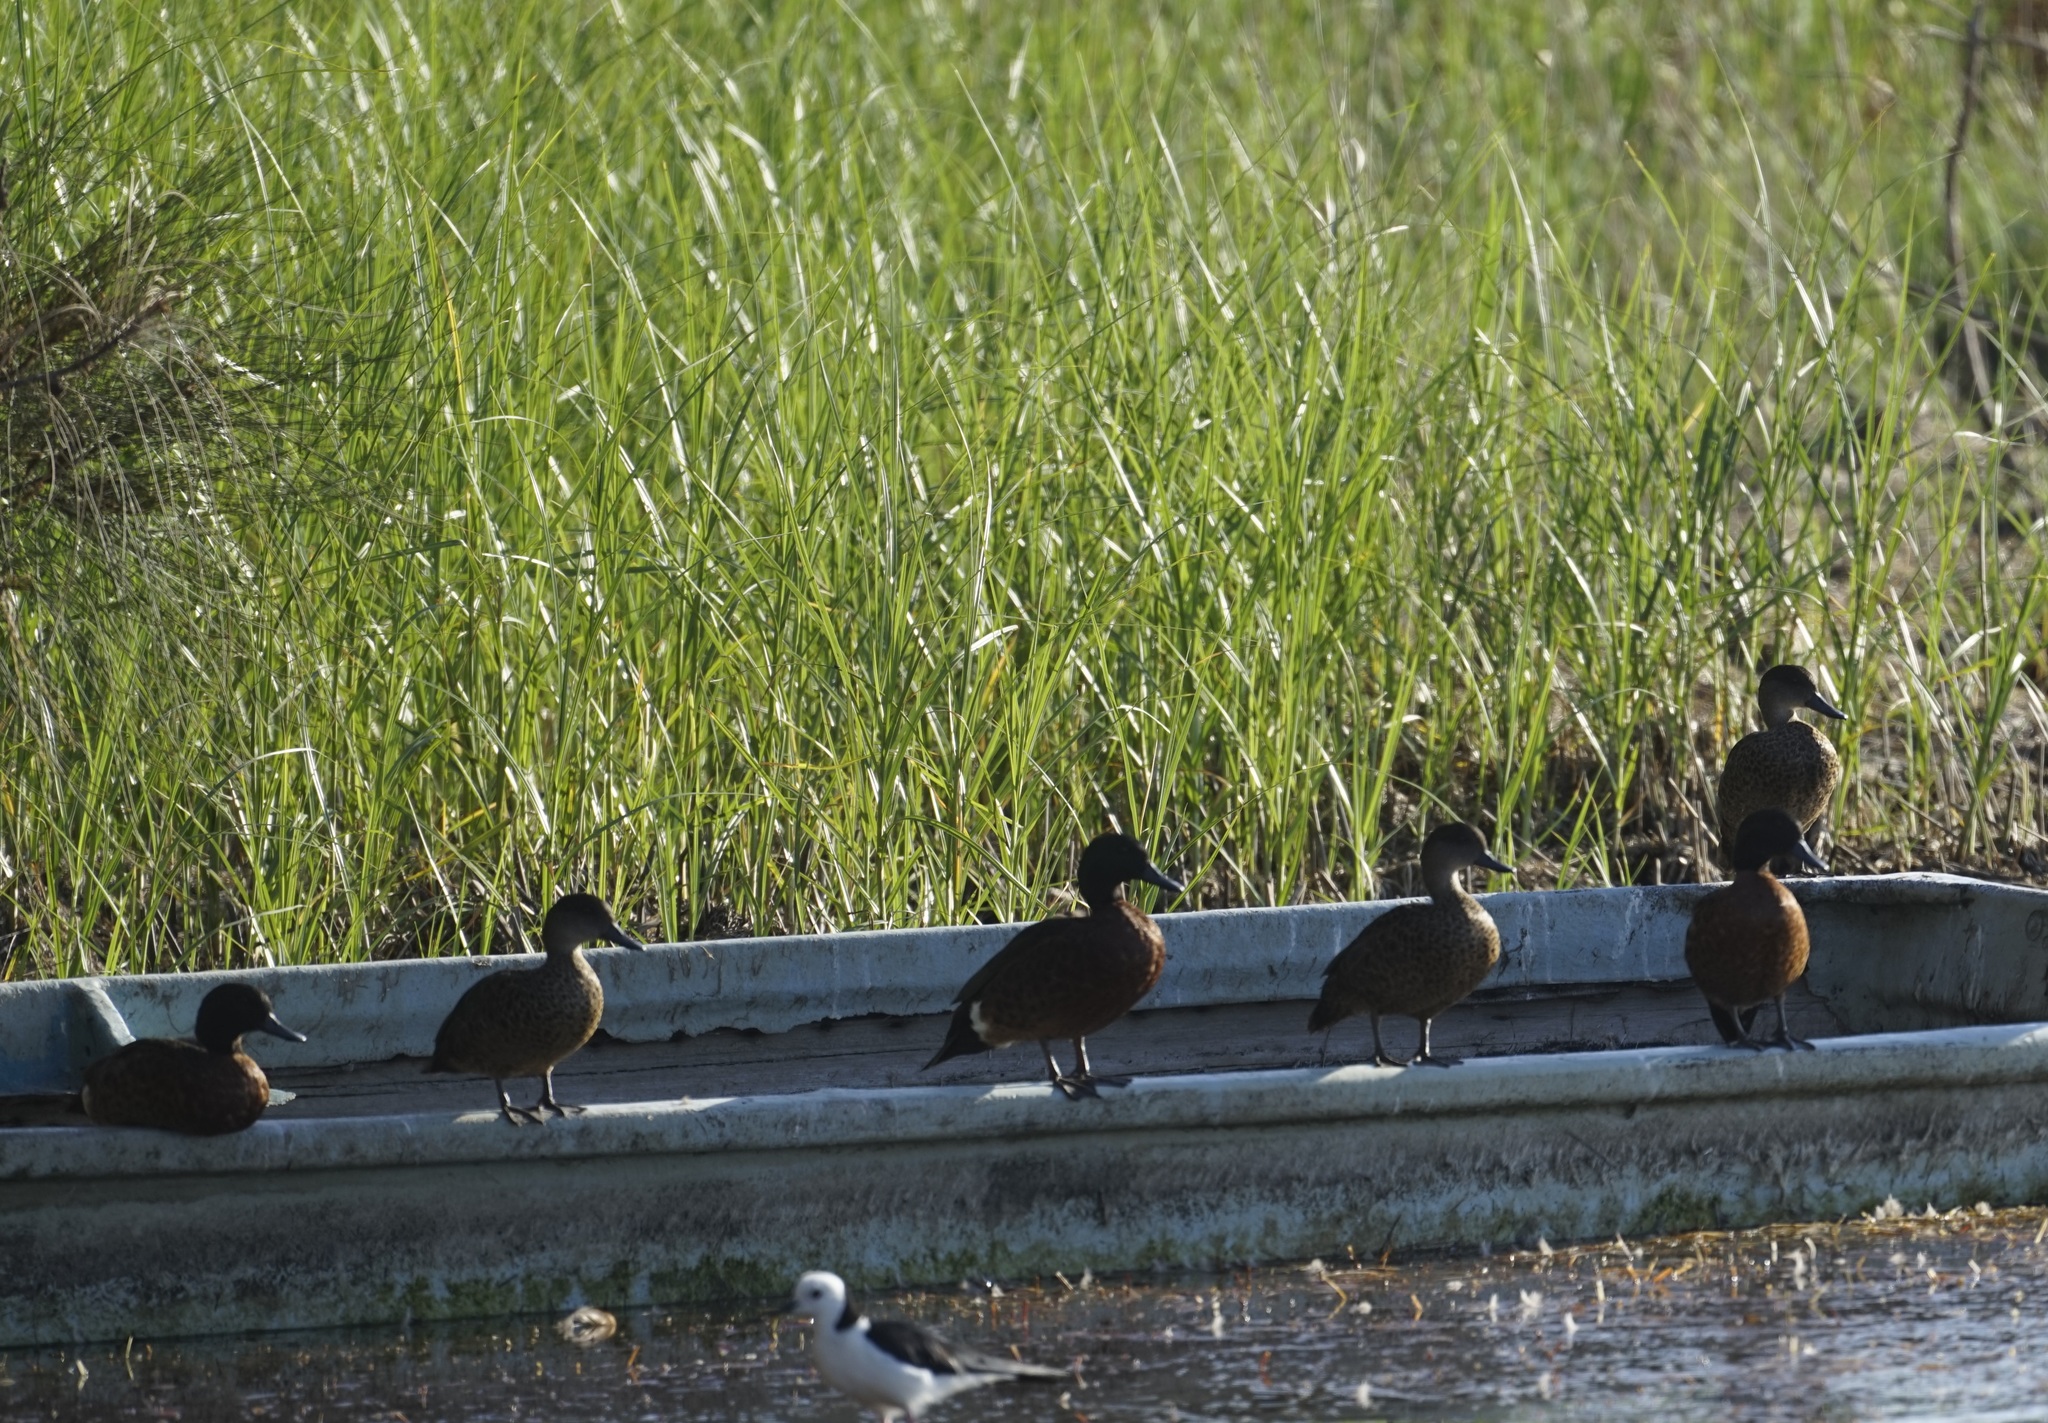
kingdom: Animalia
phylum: Chordata
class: Aves
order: Anseriformes
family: Anatidae
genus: Anas
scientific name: Anas castanea
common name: Chestnut teal
